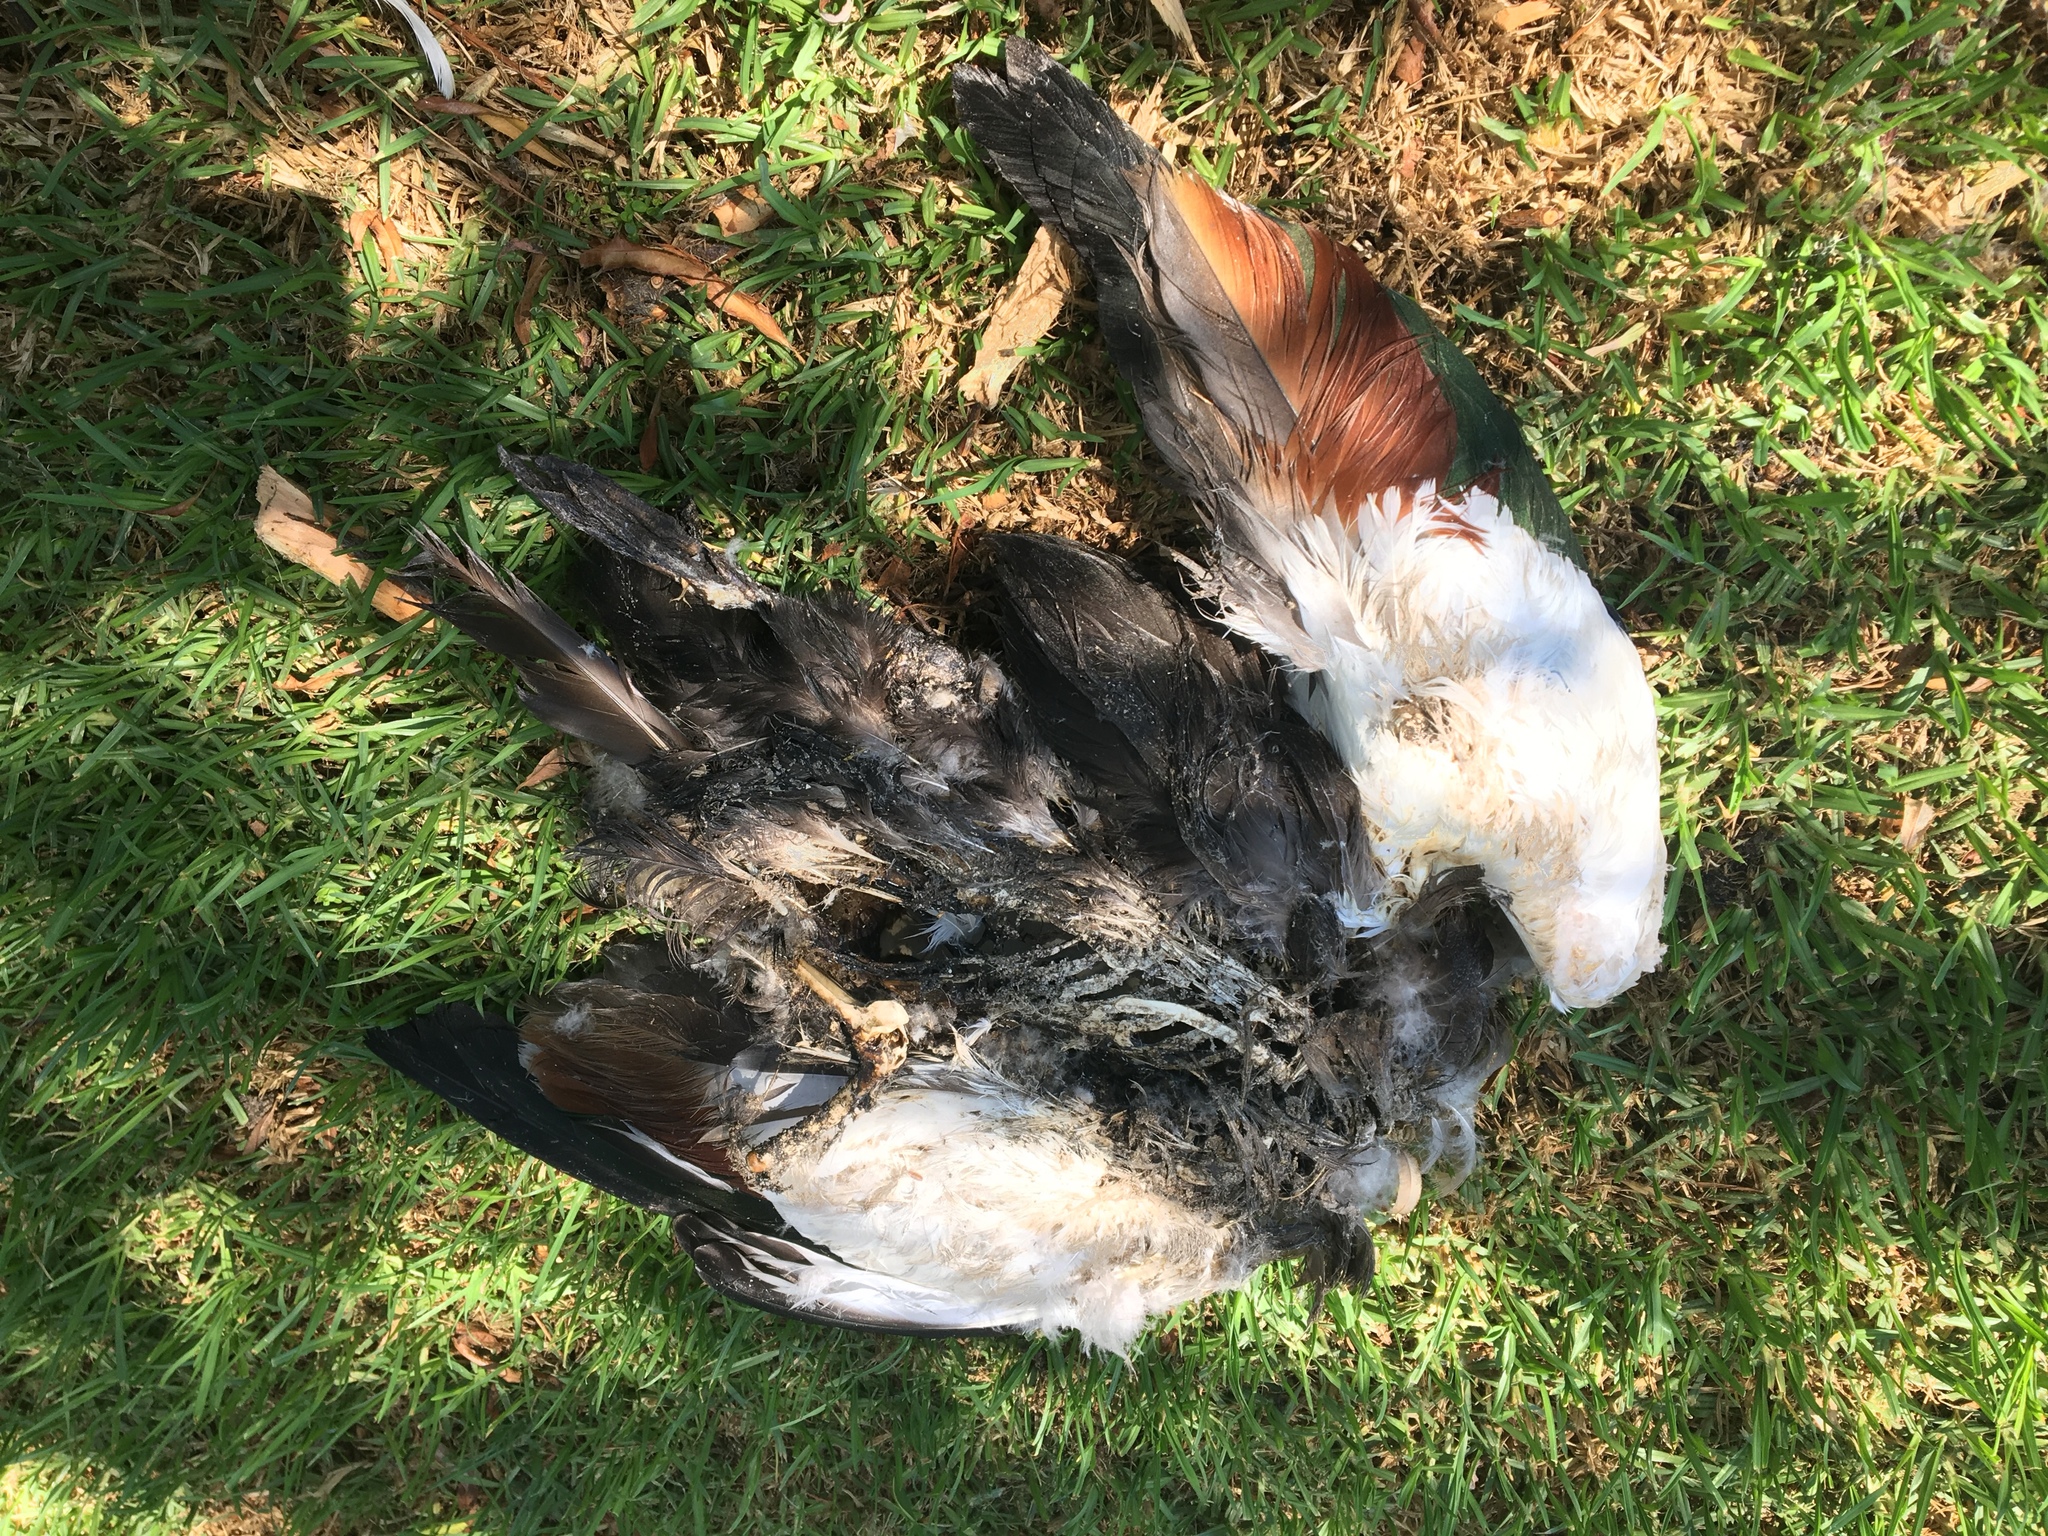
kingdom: Animalia
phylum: Chordata
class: Aves
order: Anseriformes
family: Anatidae
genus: Tadorna
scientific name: Tadorna tadornoides
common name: Australian shelduck
